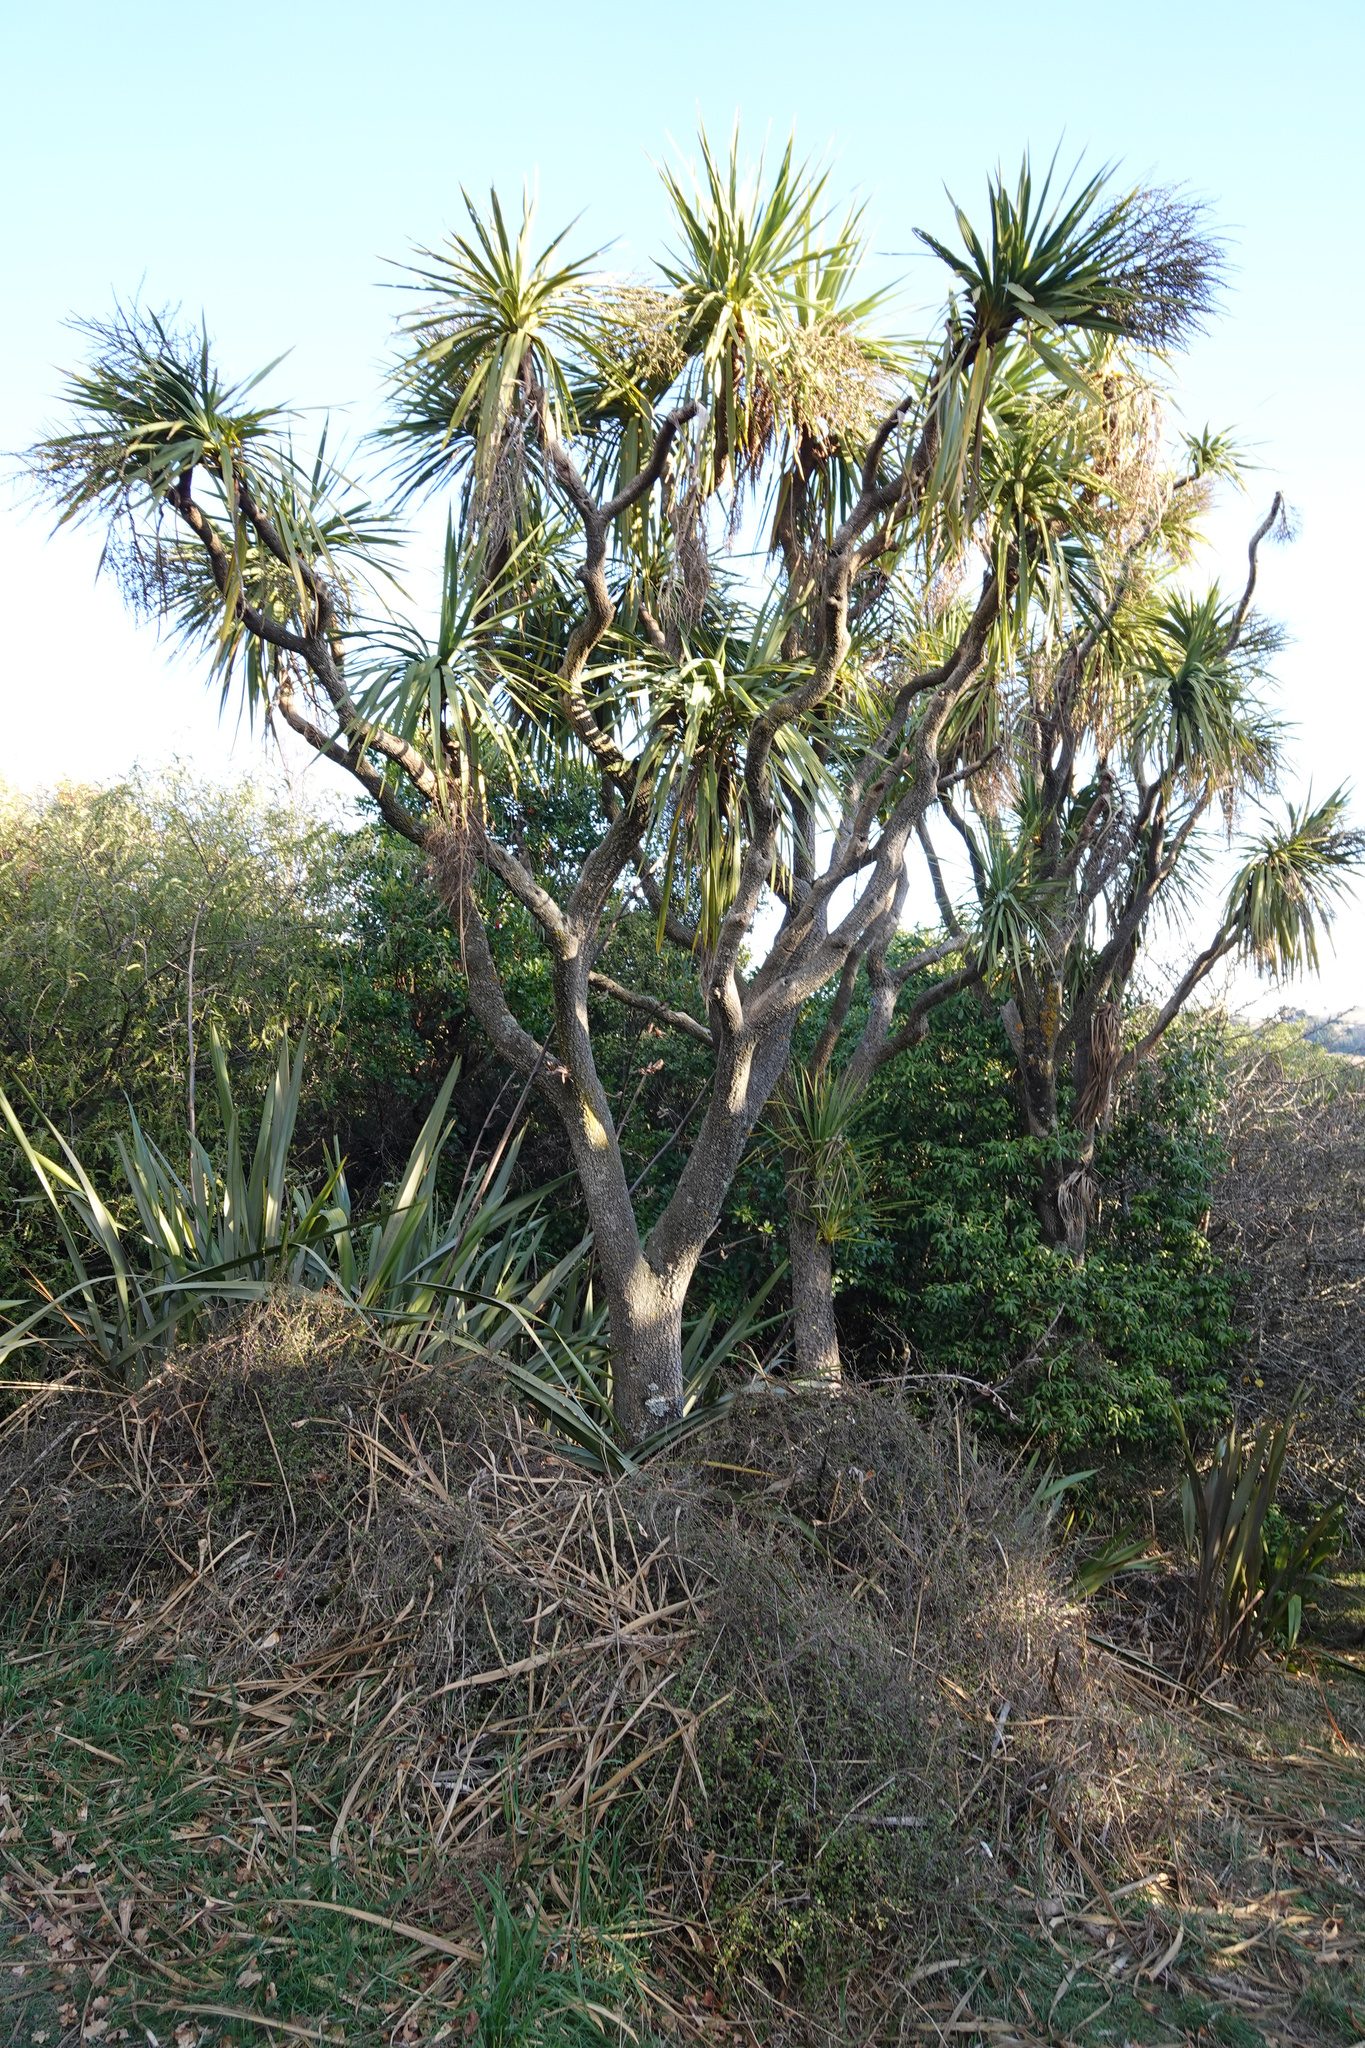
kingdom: Plantae
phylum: Tracheophyta
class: Liliopsida
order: Asparagales
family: Asparagaceae
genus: Cordyline
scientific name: Cordyline australis
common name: Cabbage-palm
